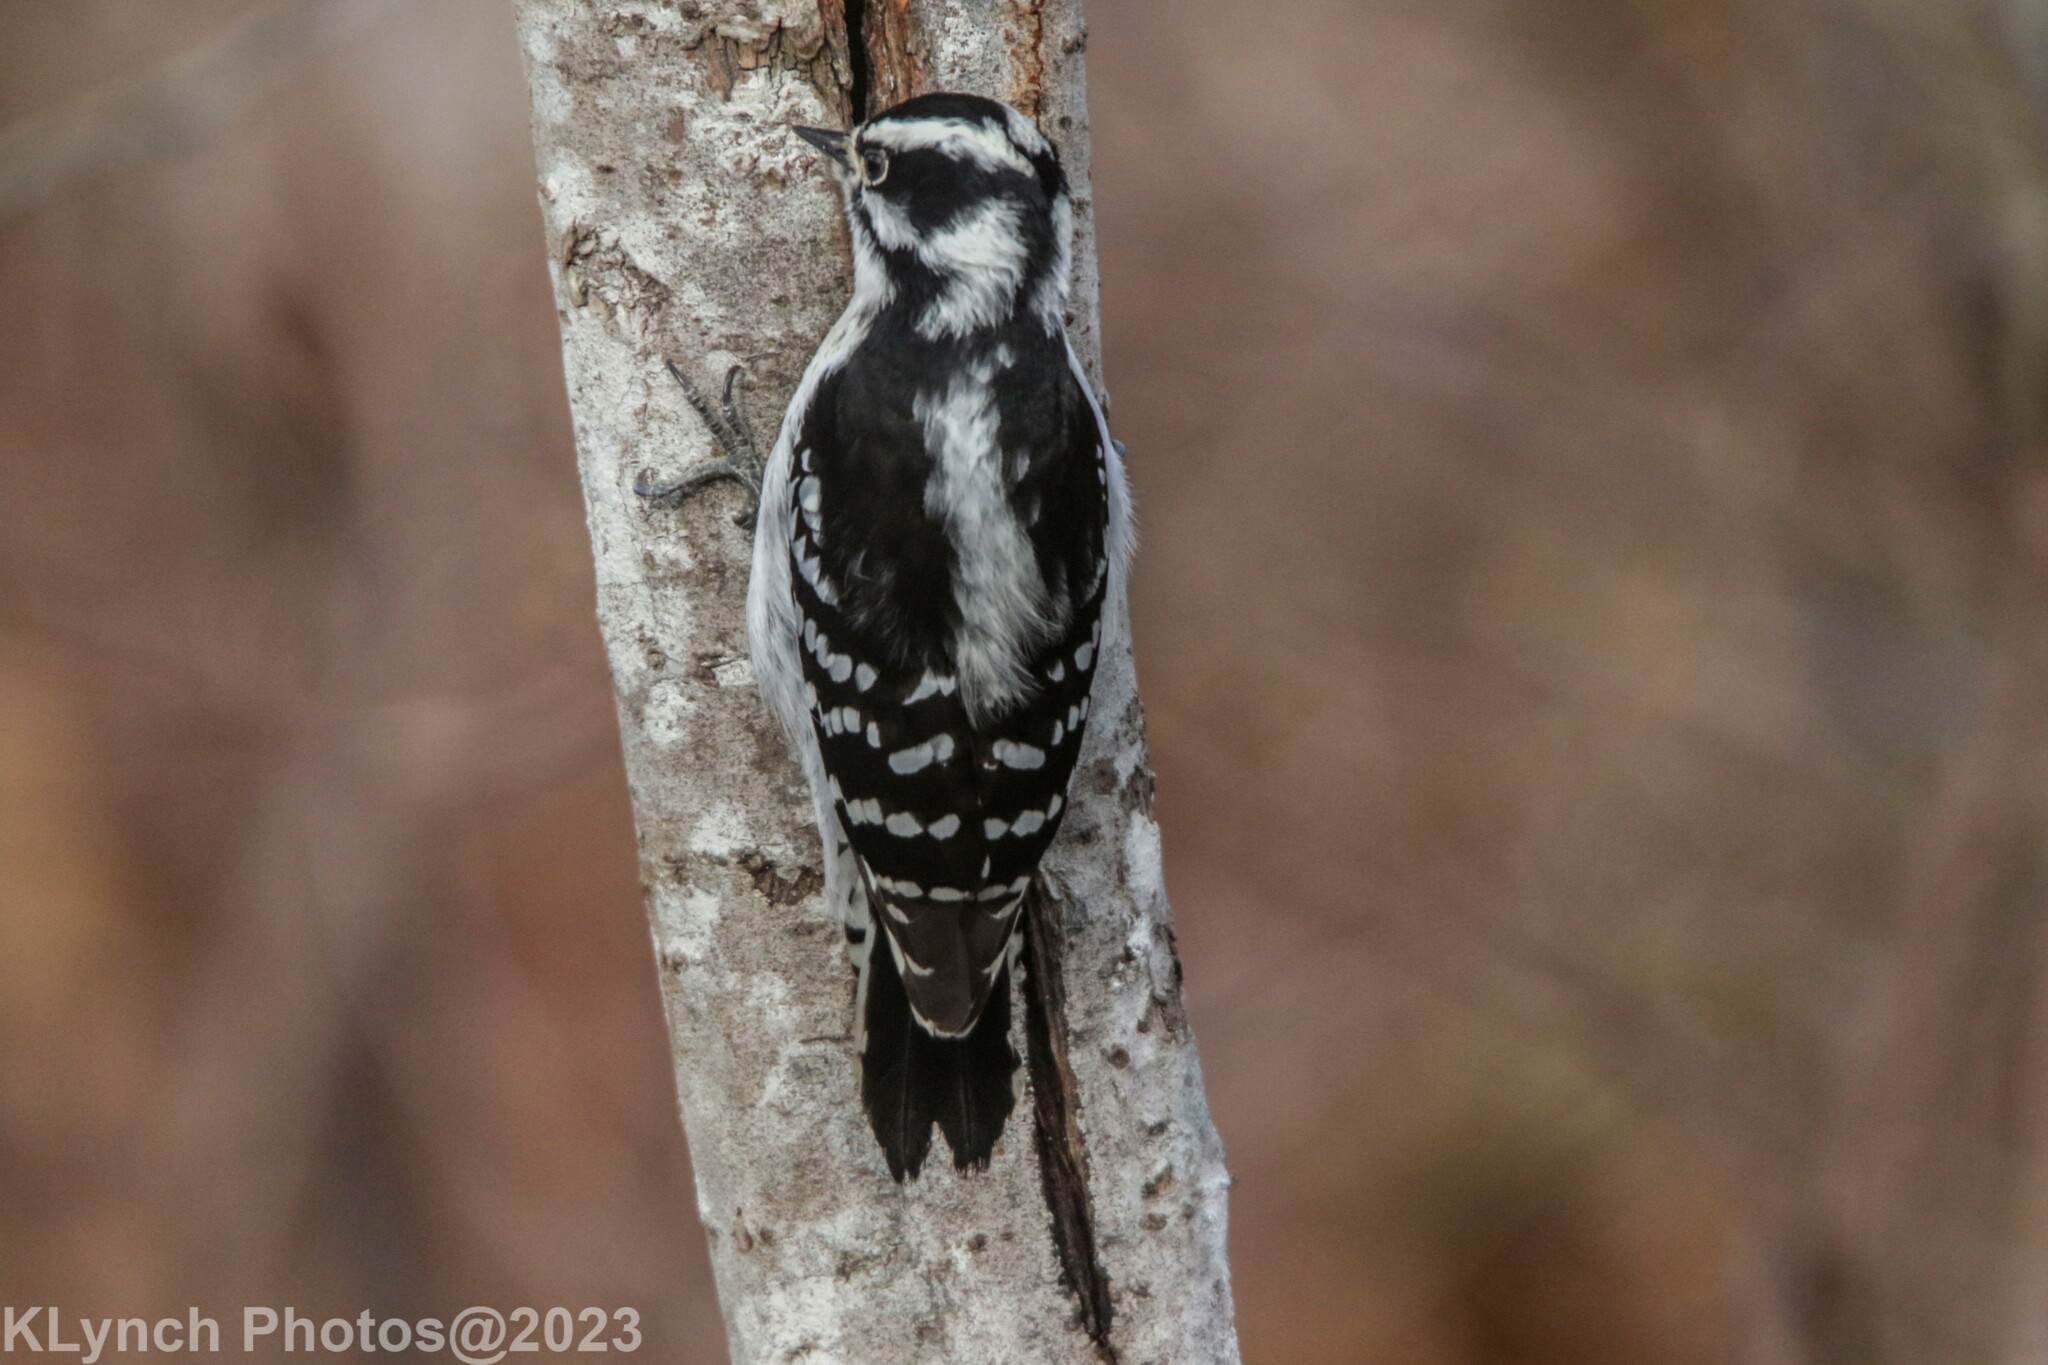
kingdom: Animalia
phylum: Chordata
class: Aves
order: Piciformes
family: Picidae
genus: Dryobates
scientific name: Dryobates pubescens
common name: Downy woodpecker
